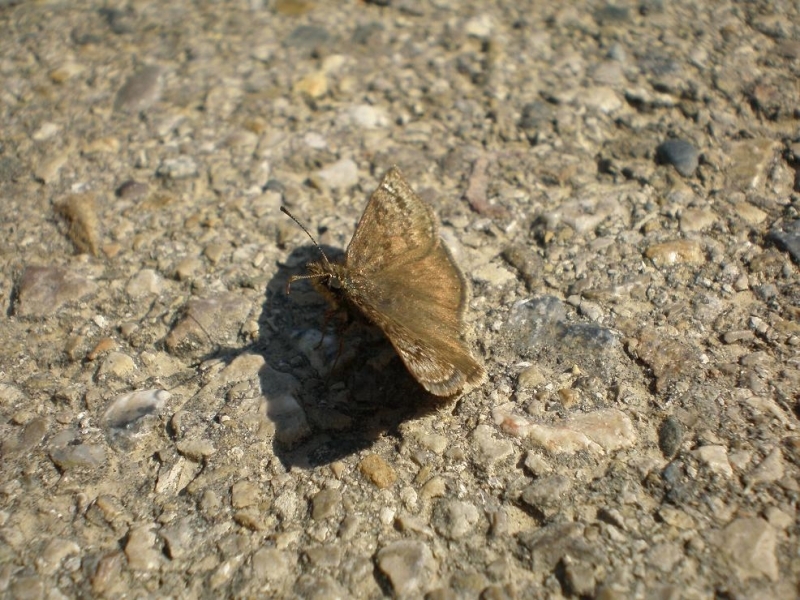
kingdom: Animalia
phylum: Arthropoda
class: Insecta
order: Lepidoptera
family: Hesperiidae
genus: Erynnis
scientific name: Erynnis tages
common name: Dingy skipper
